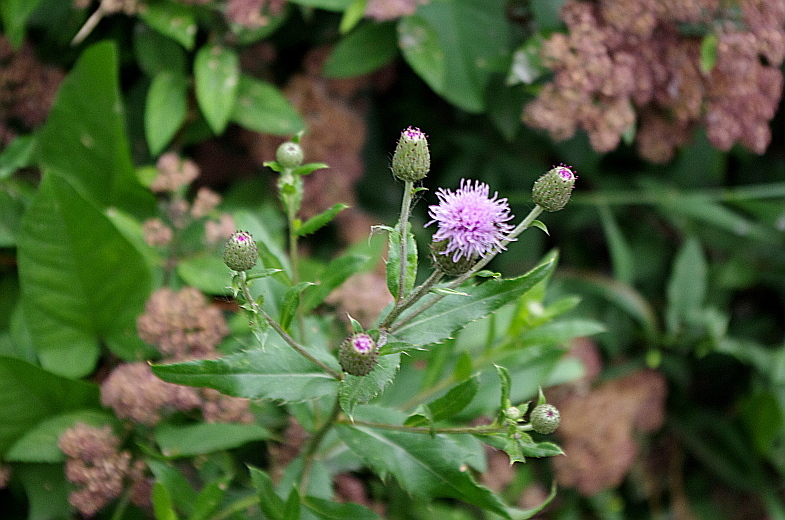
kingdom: Plantae
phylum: Tracheophyta
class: Magnoliopsida
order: Asterales
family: Asteraceae
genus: Cirsium
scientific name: Cirsium arvense
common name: Creeping thistle
